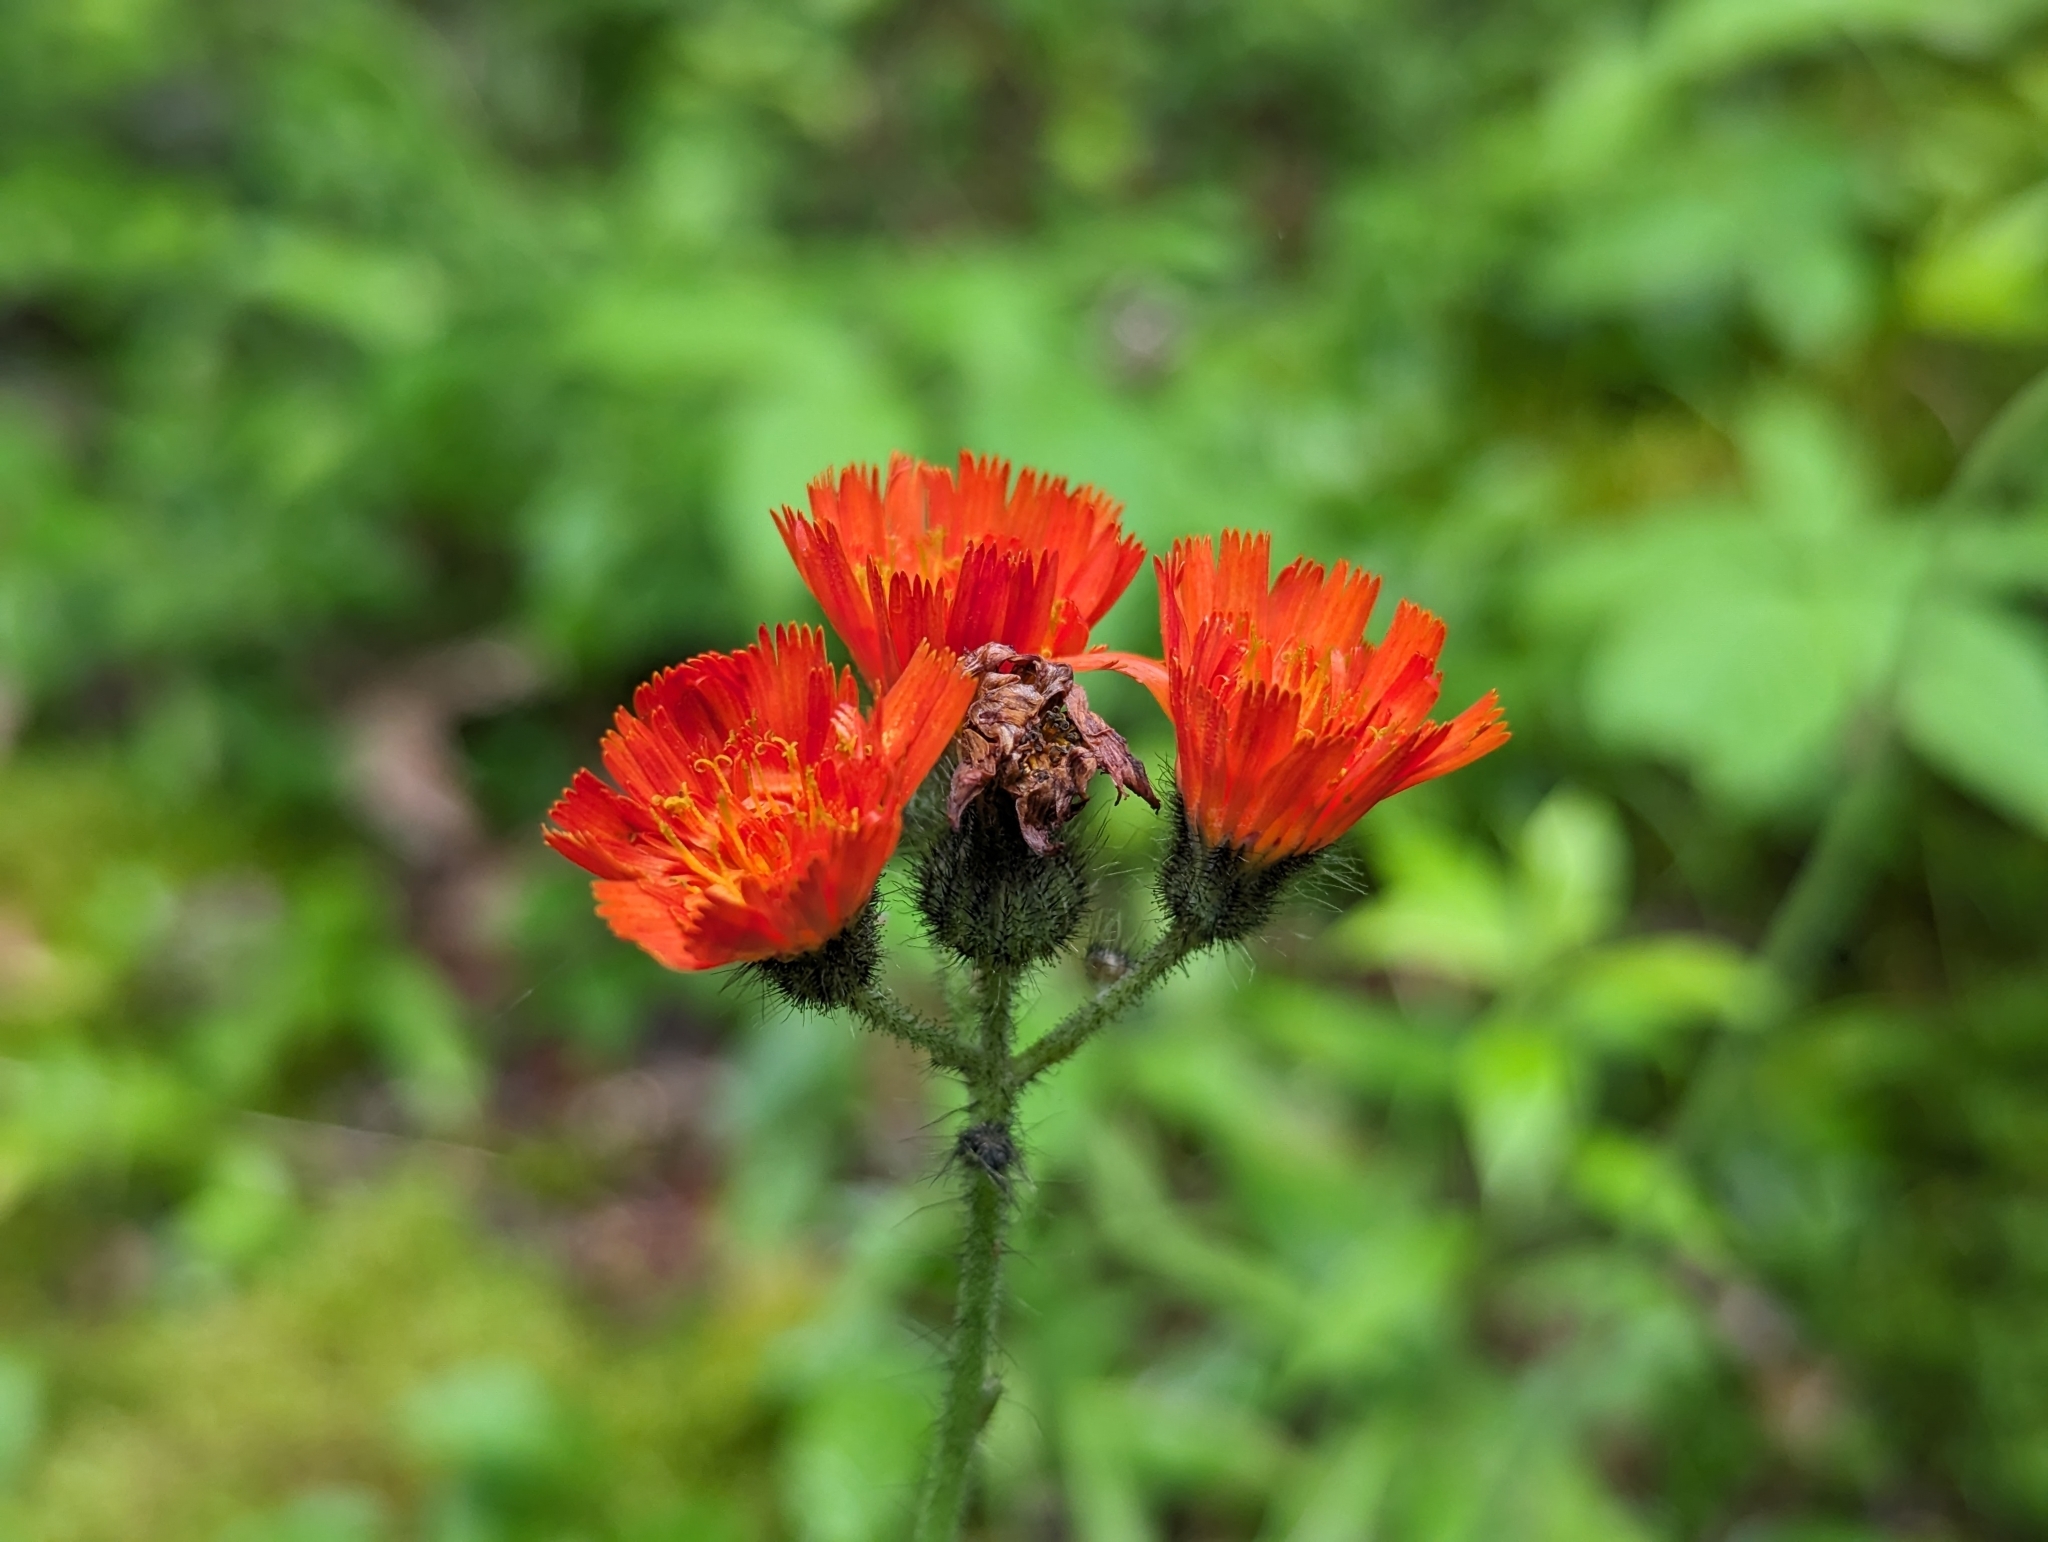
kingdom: Plantae
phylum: Tracheophyta
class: Magnoliopsida
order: Asterales
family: Asteraceae
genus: Pilosella
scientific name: Pilosella aurantiaca
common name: Fox-and-cubs
